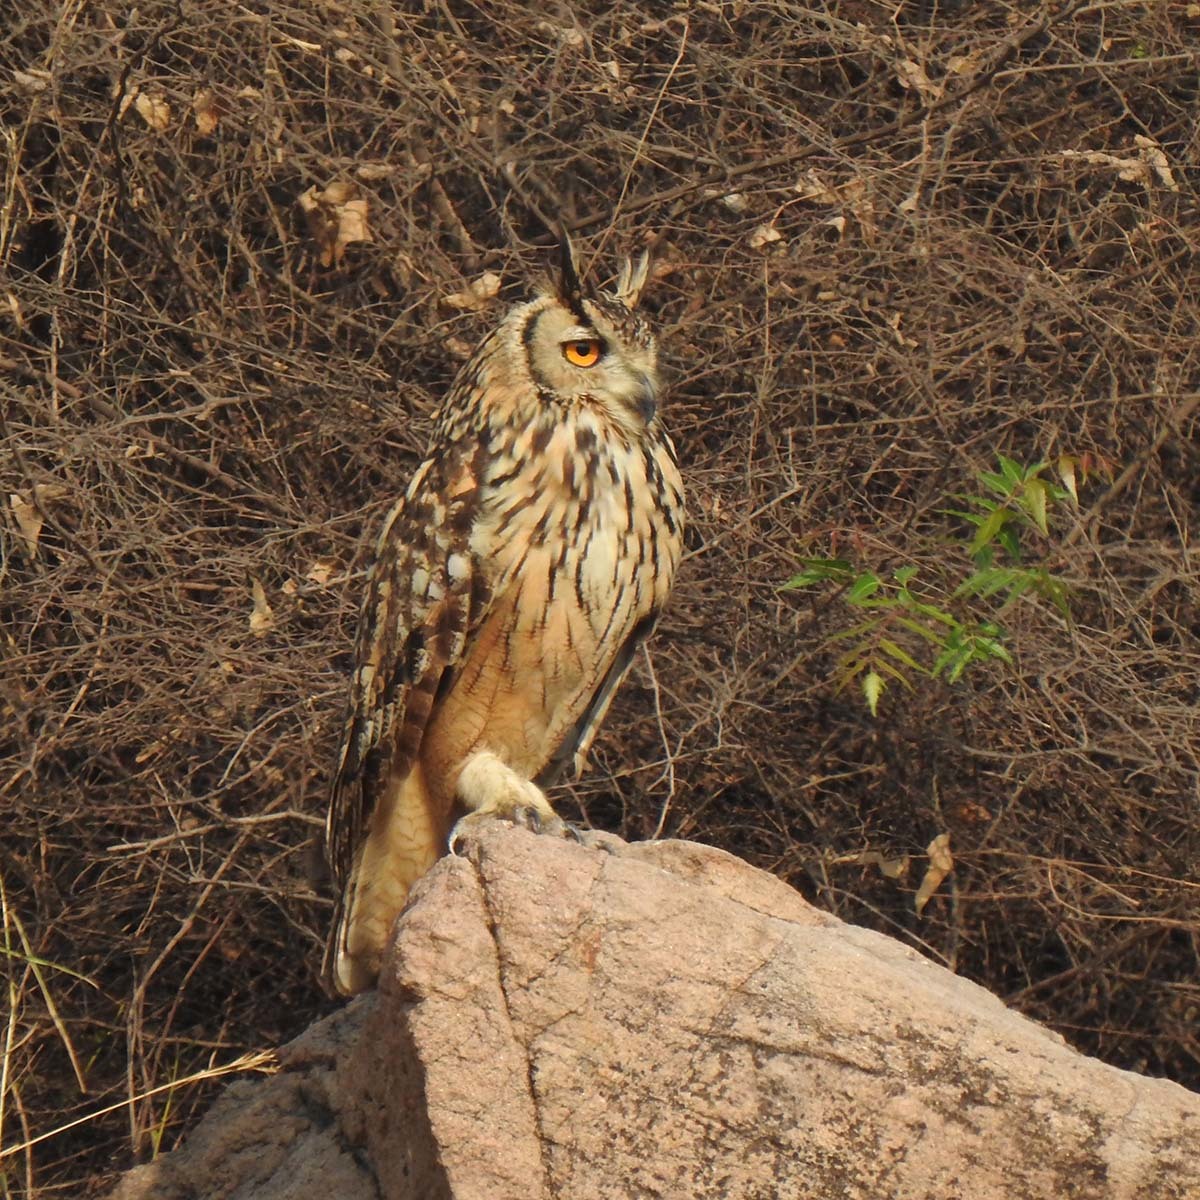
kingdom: Animalia
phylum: Chordata
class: Aves
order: Strigiformes
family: Strigidae
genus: Bubo
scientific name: Bubo bengalensis
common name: Indian eagle-owl
